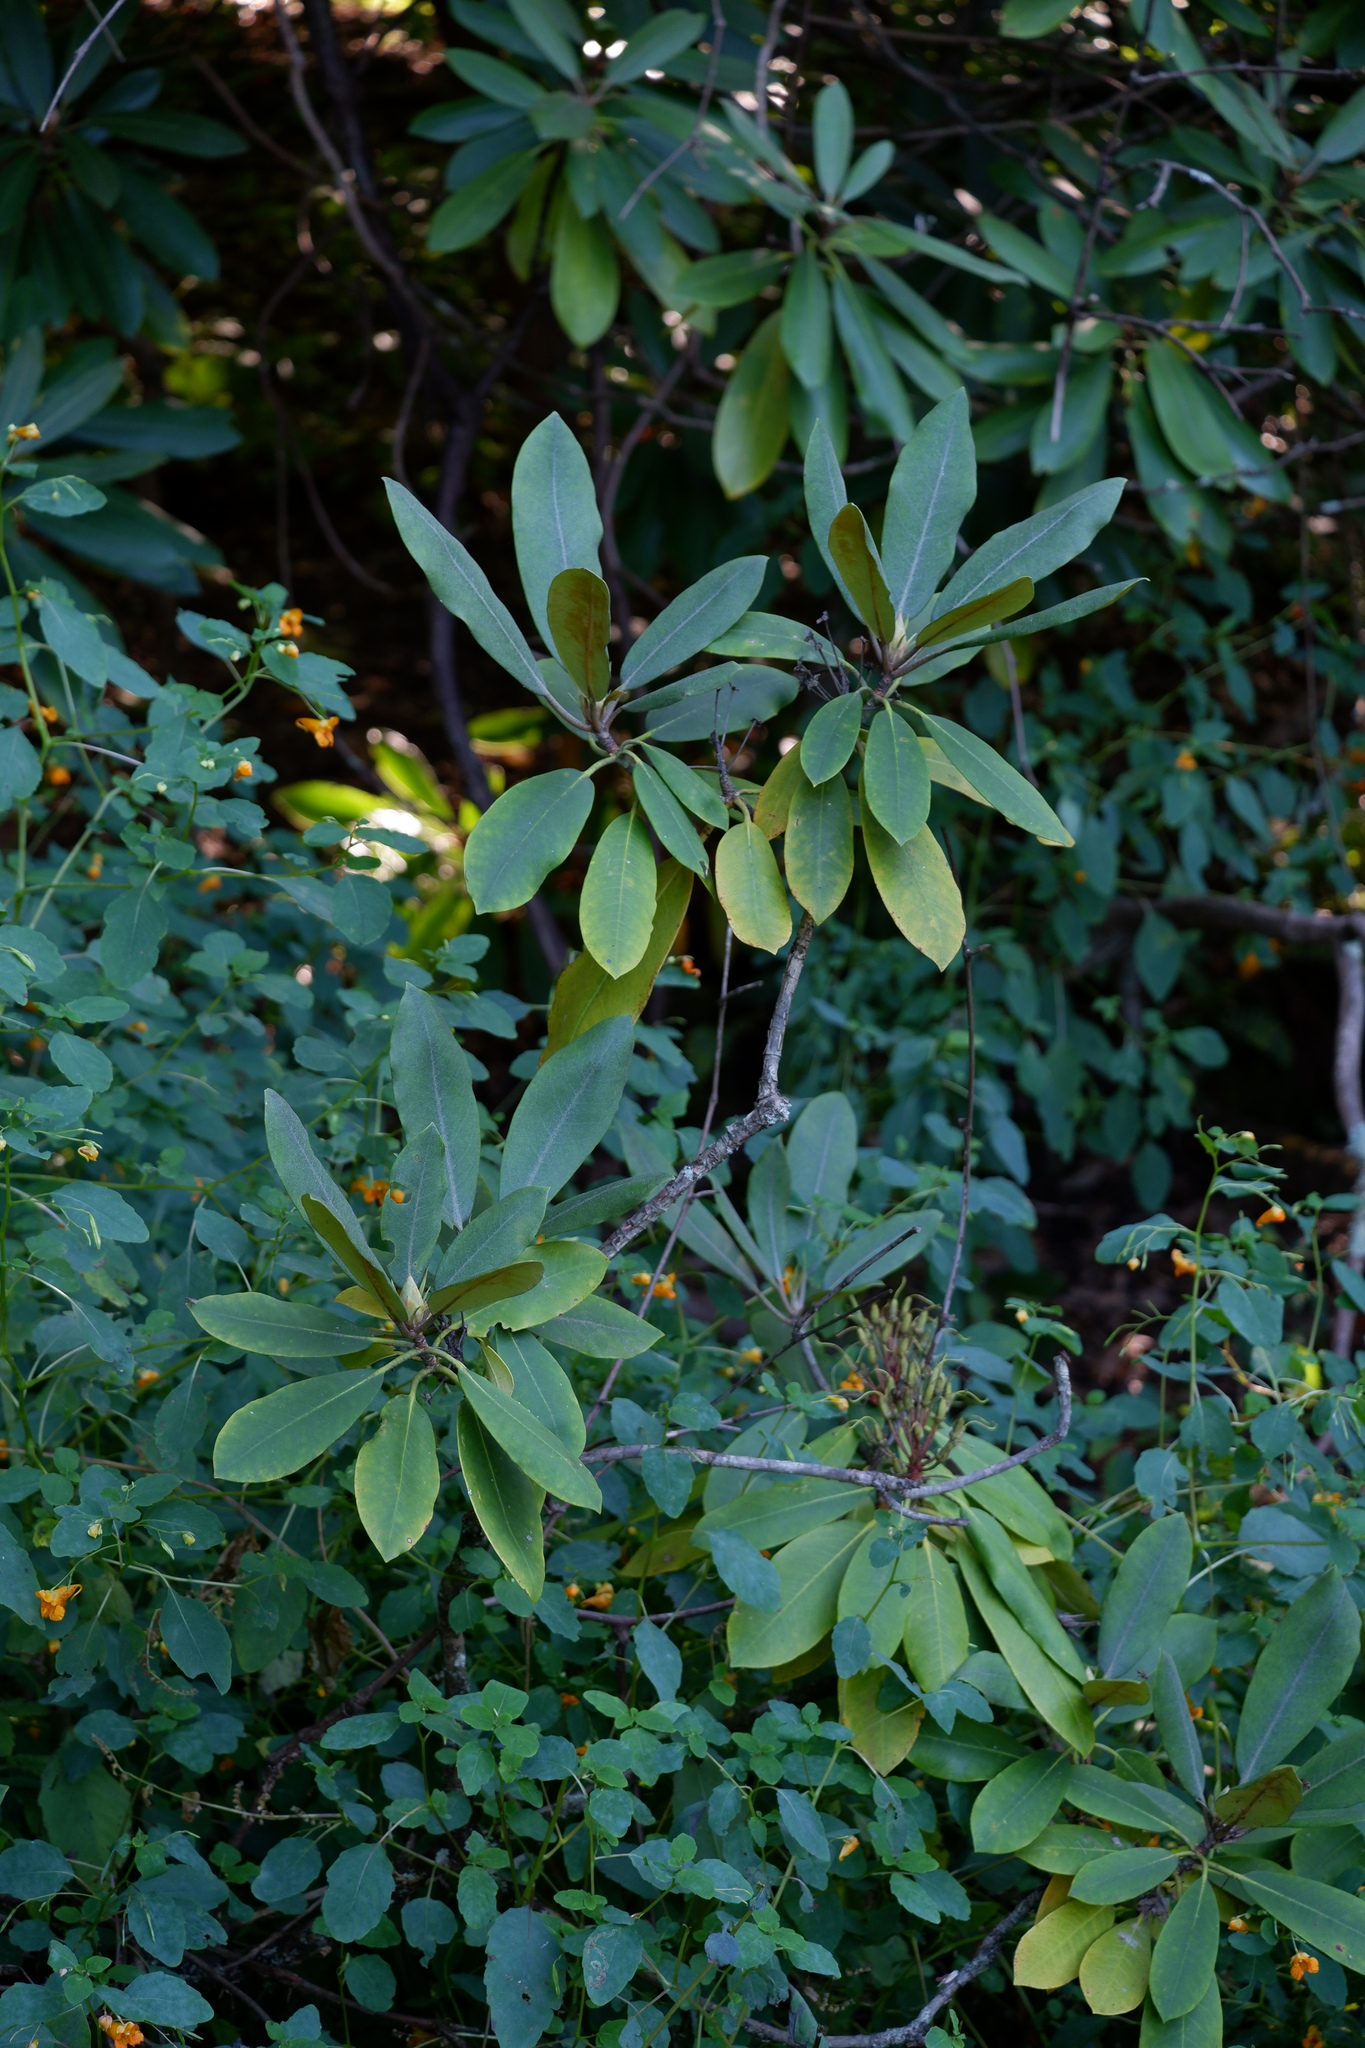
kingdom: Plantae
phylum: Tracheophyta
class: Magnoliopsida
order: Ericales
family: Ericaceae
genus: Rhododendron
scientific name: Rhododendron maximum
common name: Great rhododendron
